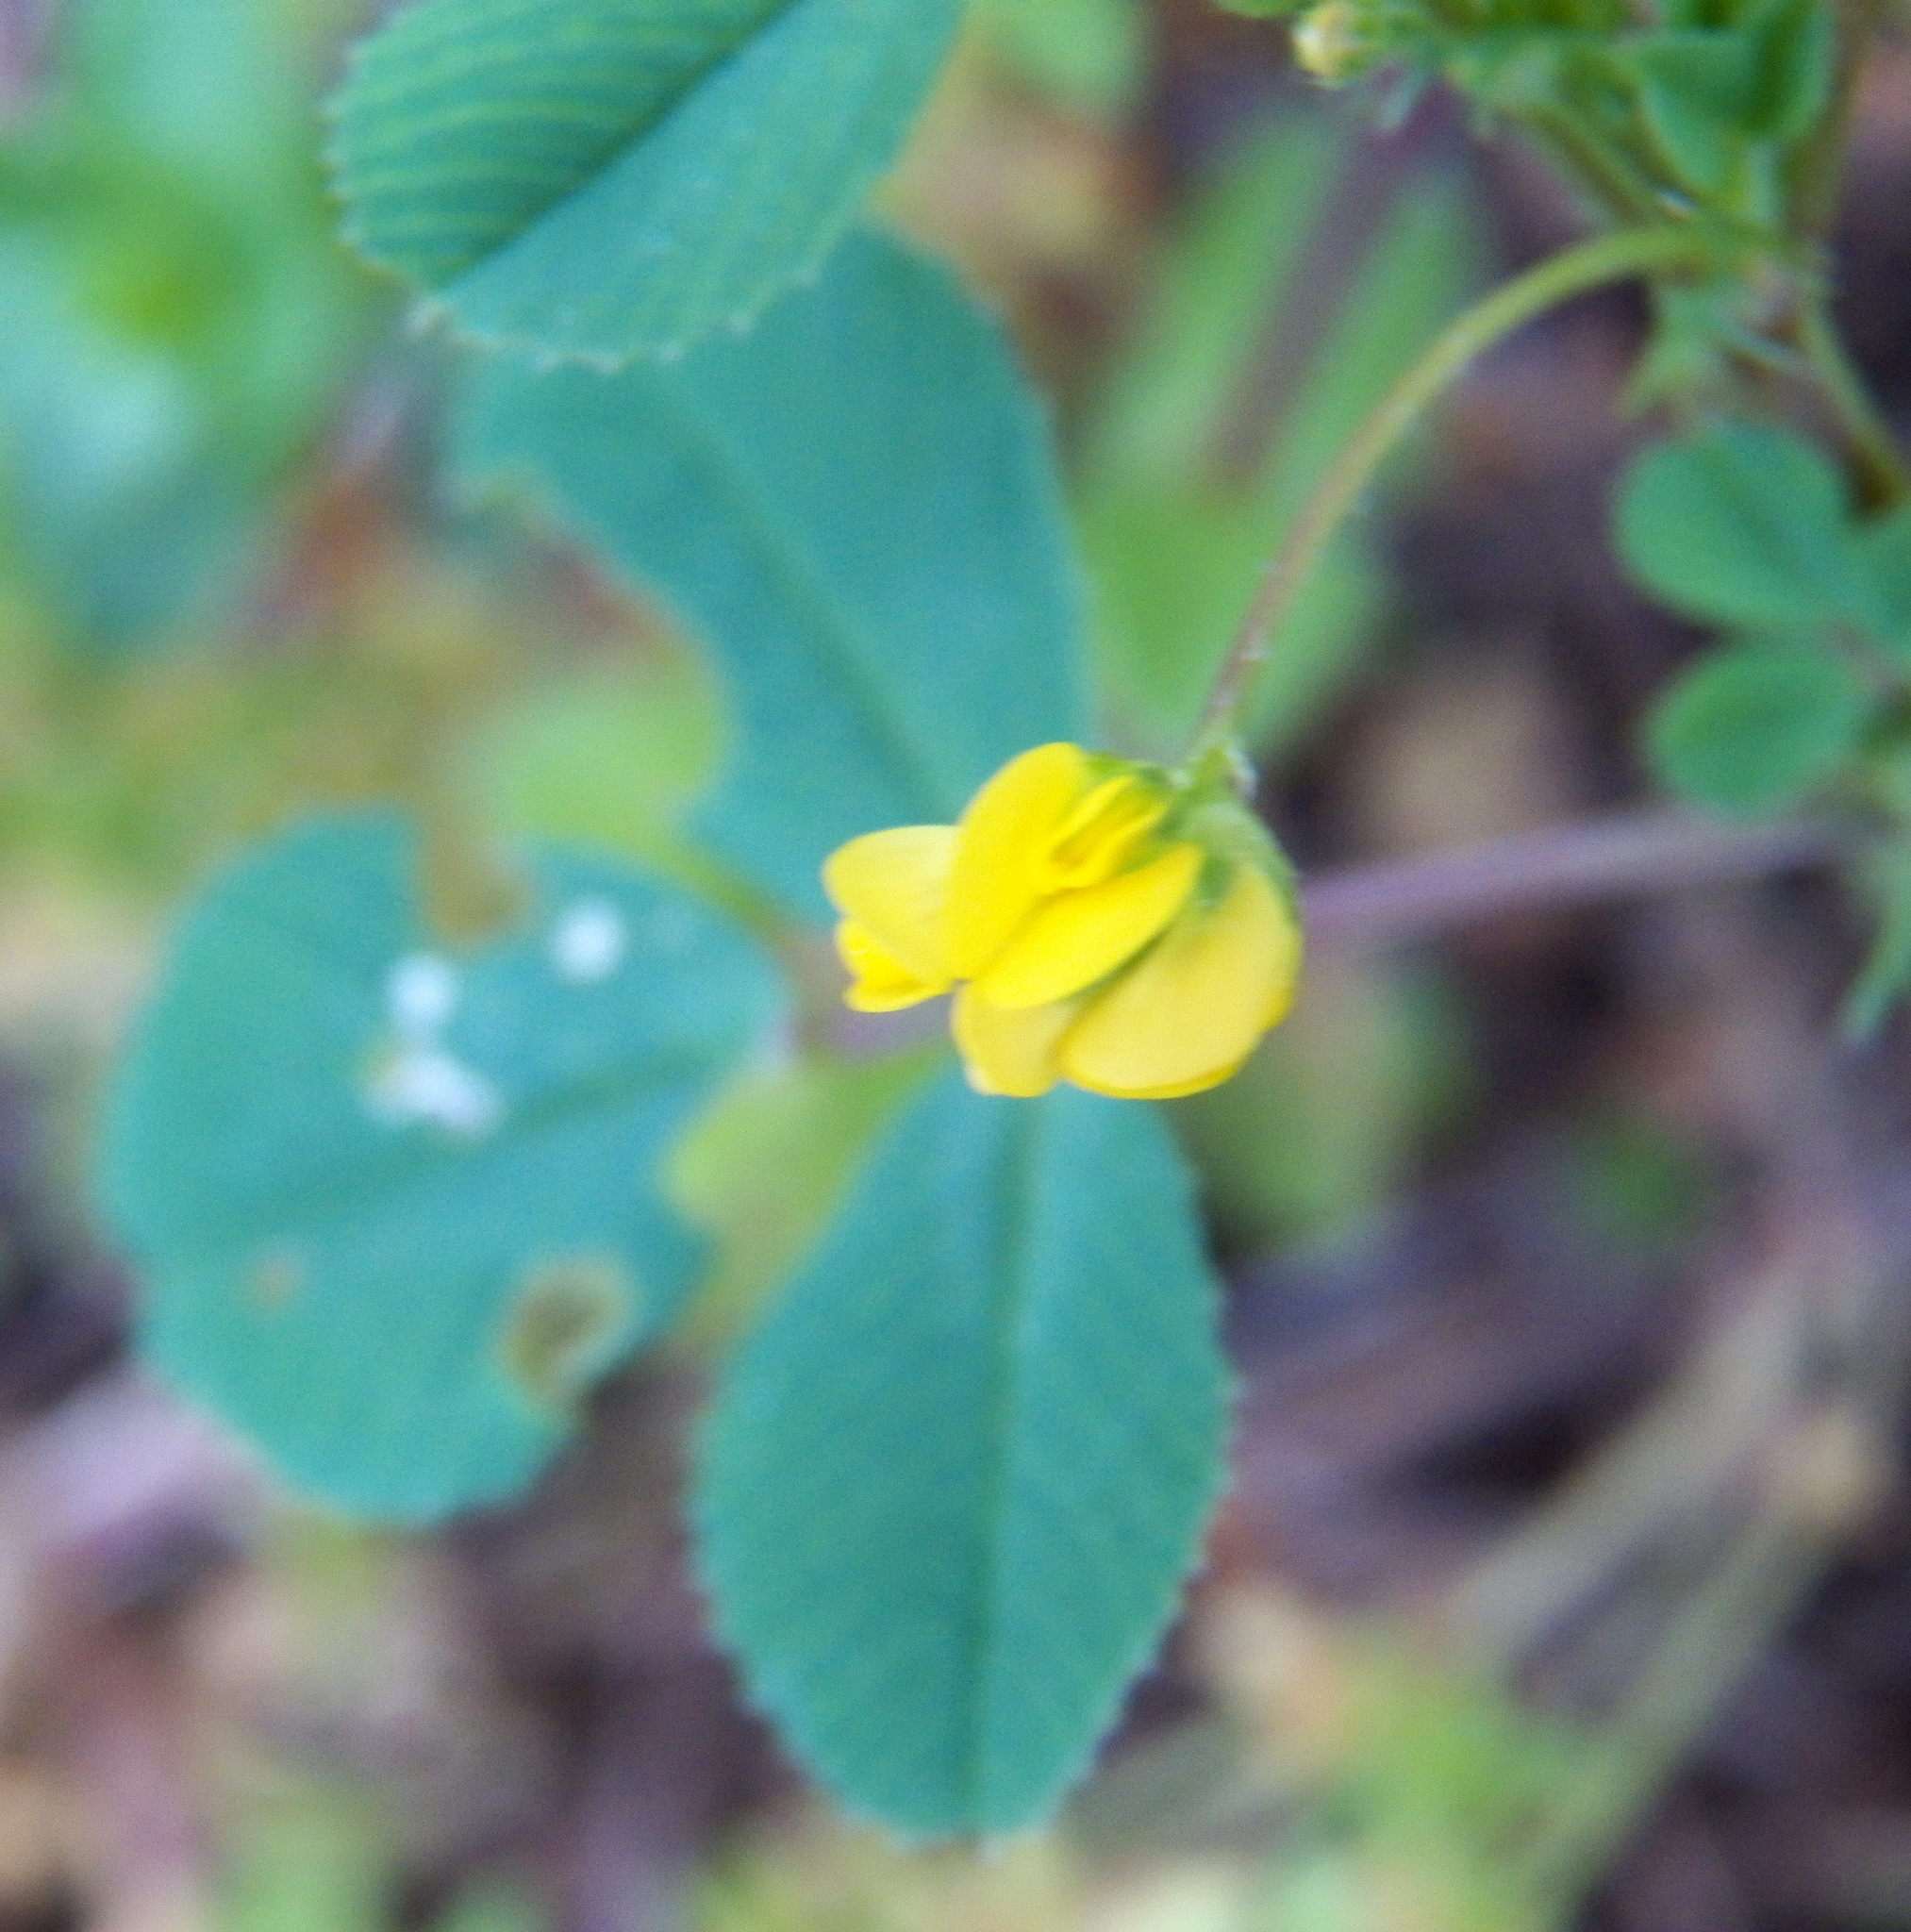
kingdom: Plantae
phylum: Tracheophyta
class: Magnoliopsida
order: Fabales
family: Fabaceae
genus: Medicago
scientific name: Medicago polymorpha
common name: Burclover
